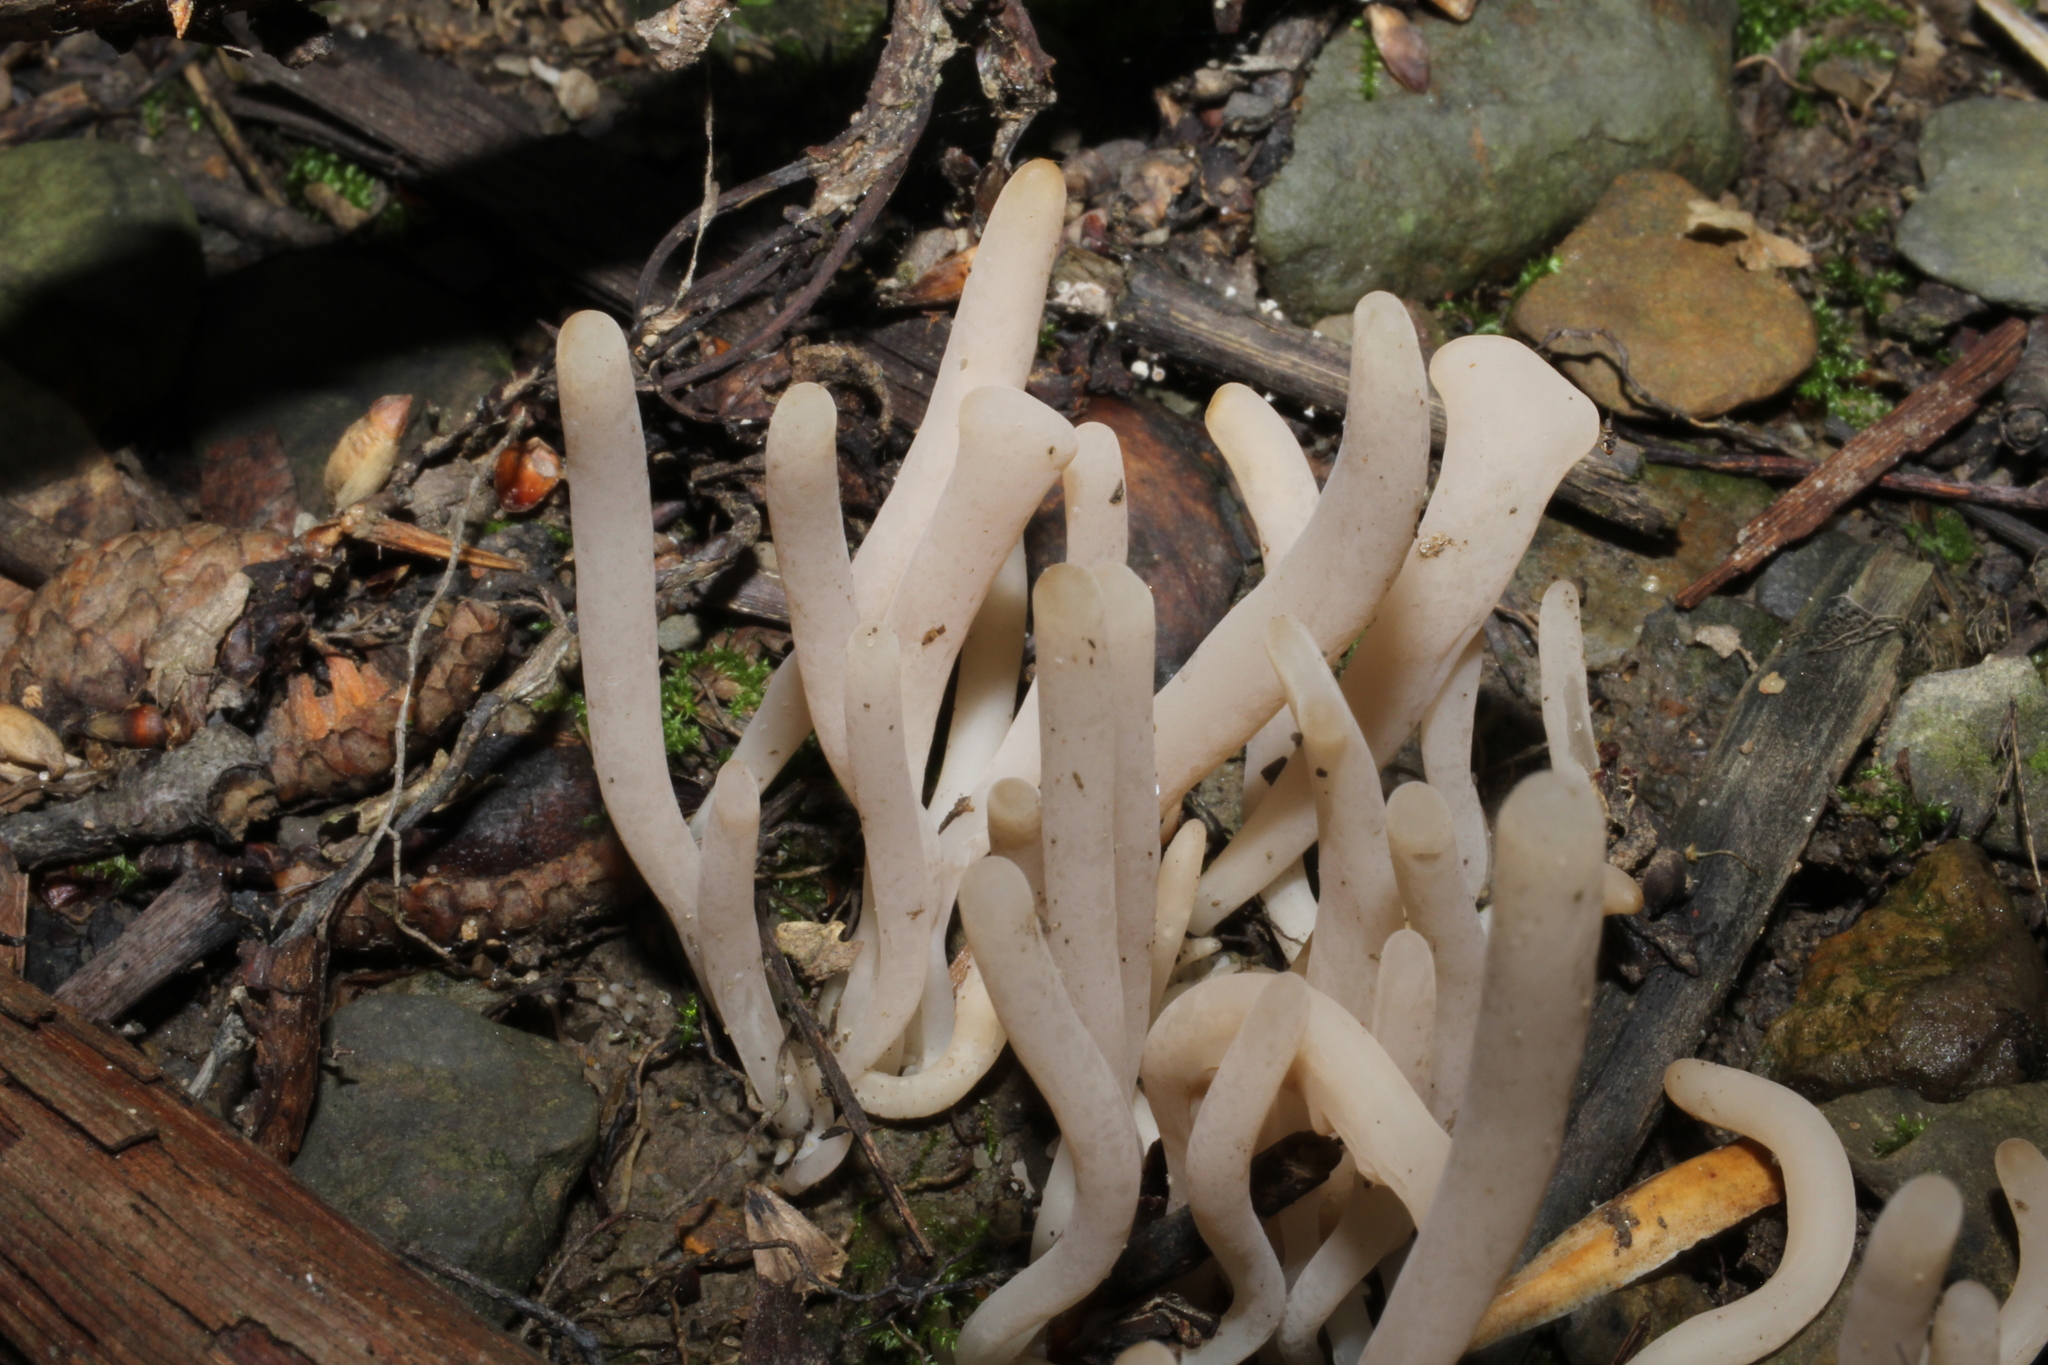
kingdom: Fungi
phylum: Basidiomycota
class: Agaricomycetes
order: Agaricales
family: Clavariaceae
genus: Clavaria
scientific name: Clavaria fragilis
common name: White spindles
